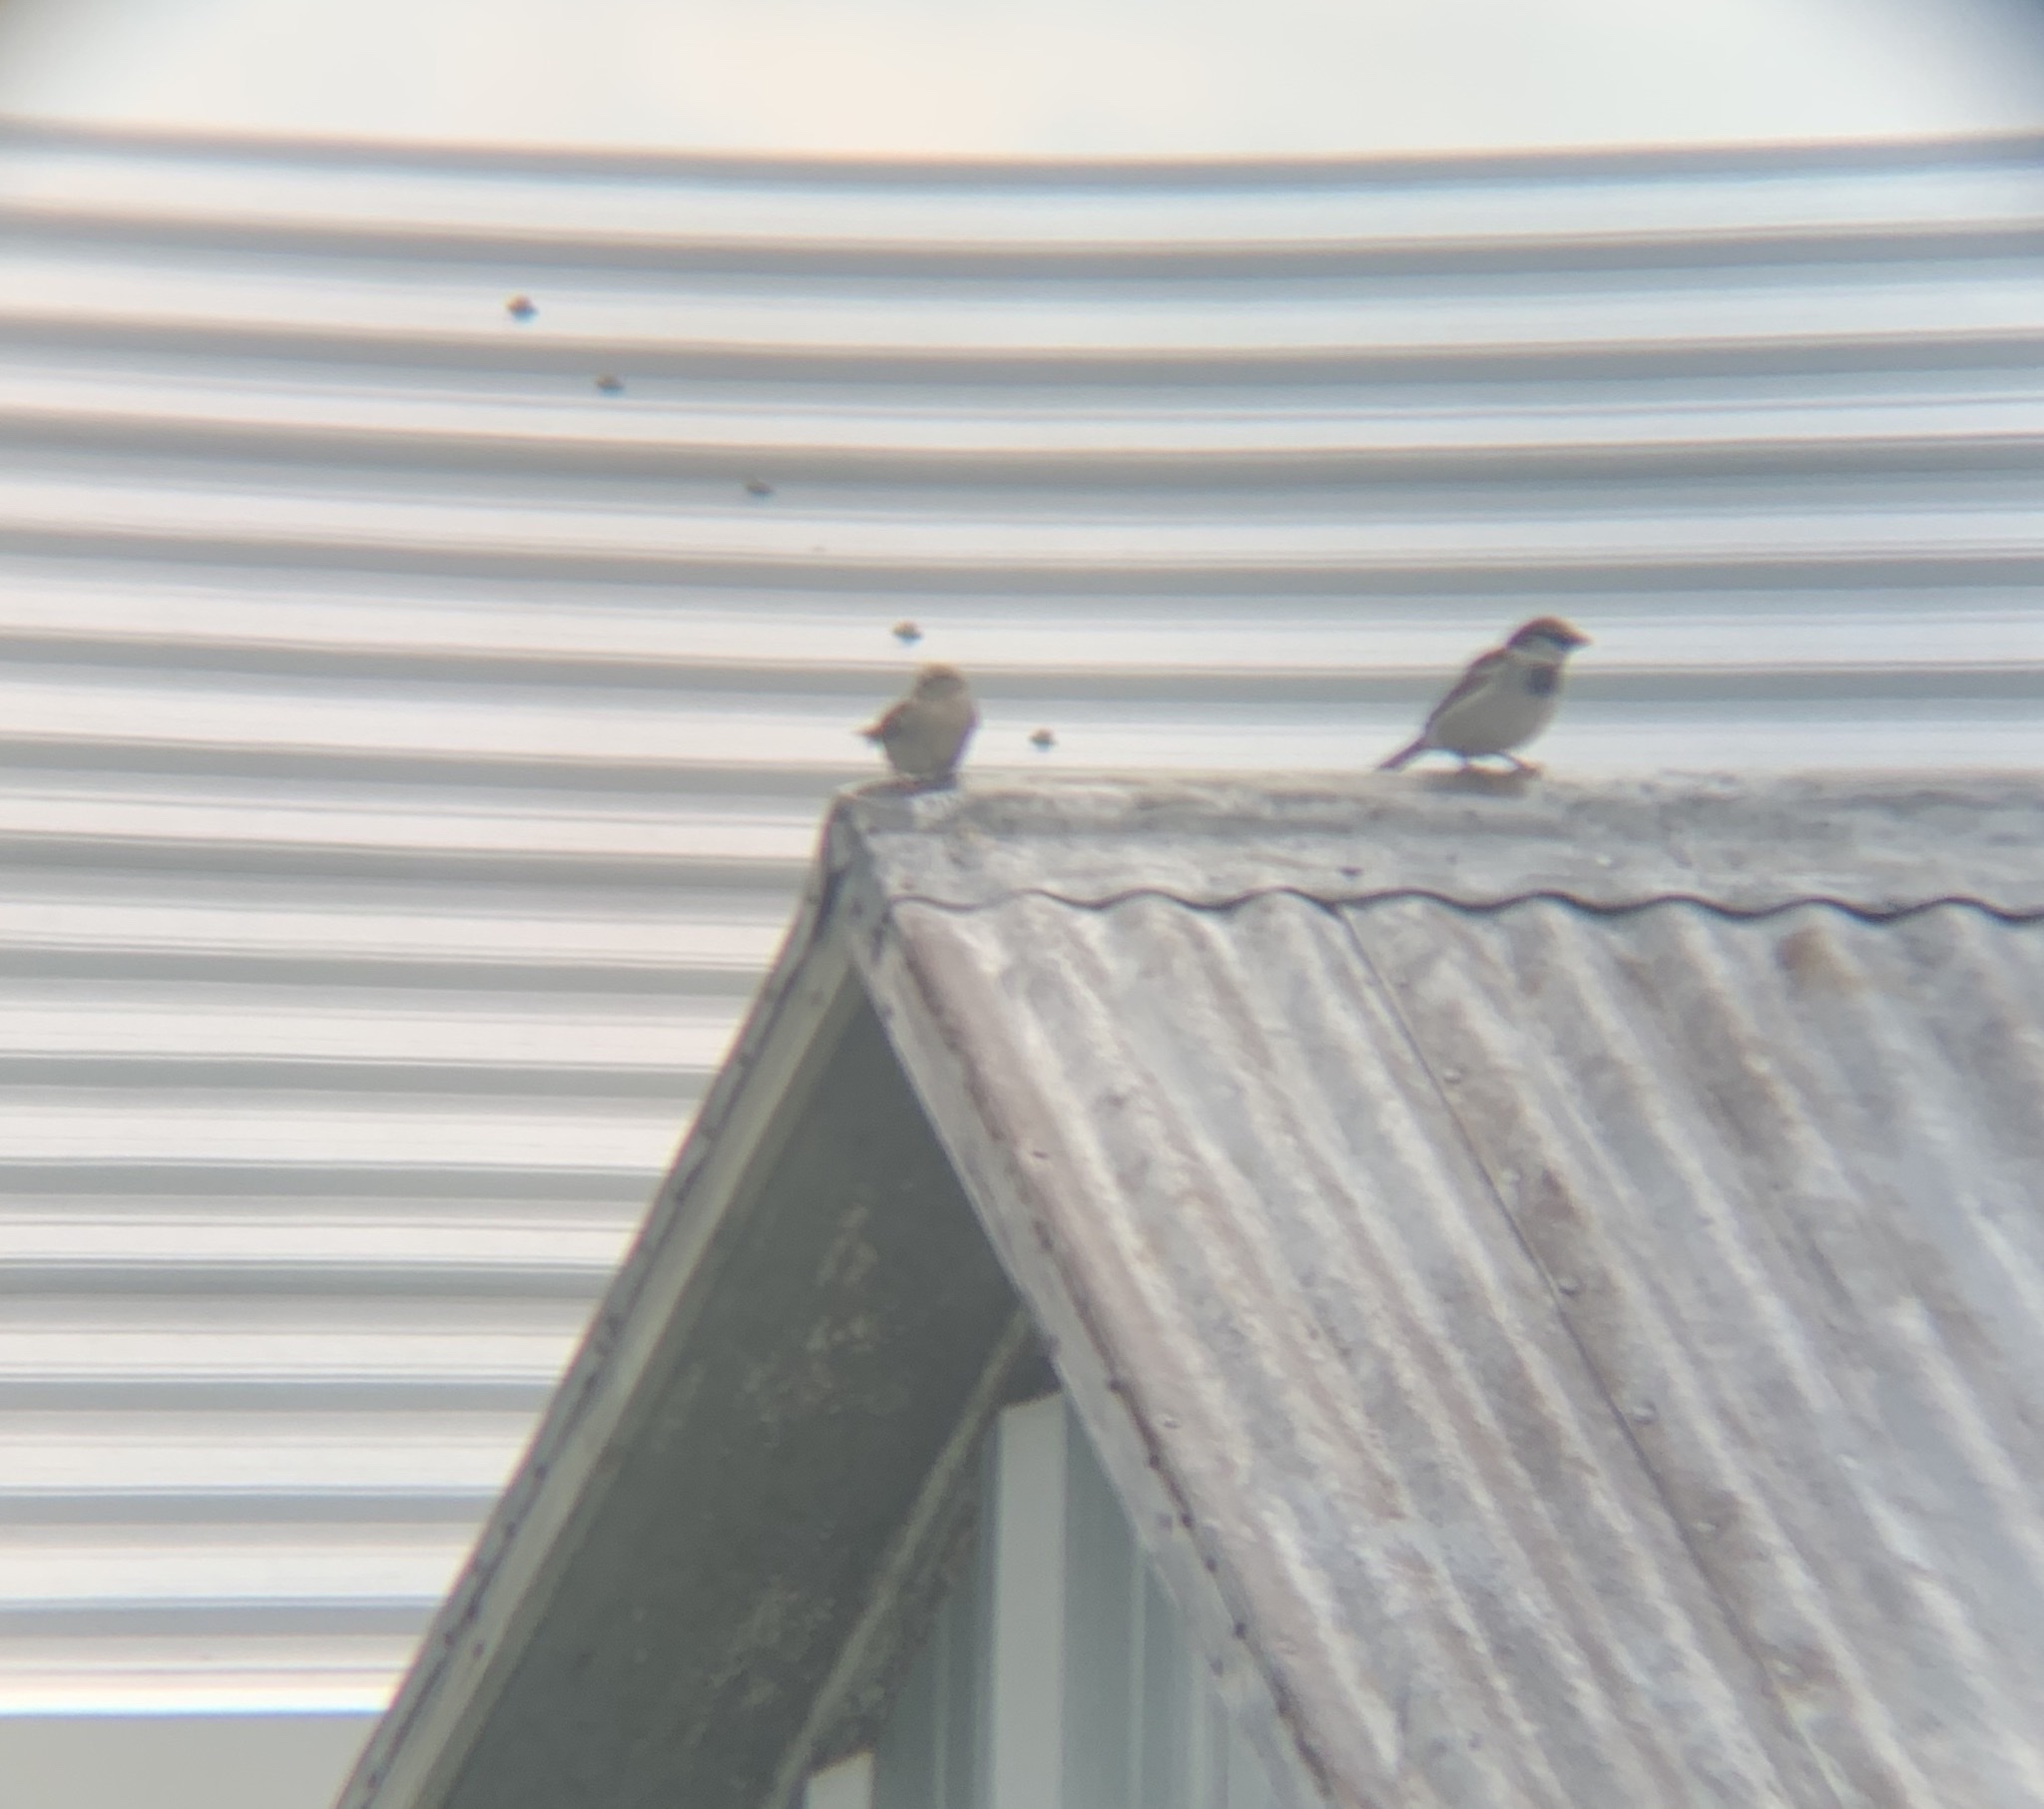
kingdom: Animalia
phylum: Chordata
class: Aves
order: Passeriformes
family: Passeridae
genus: Passer
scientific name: Passer domesticus
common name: House sparrow
